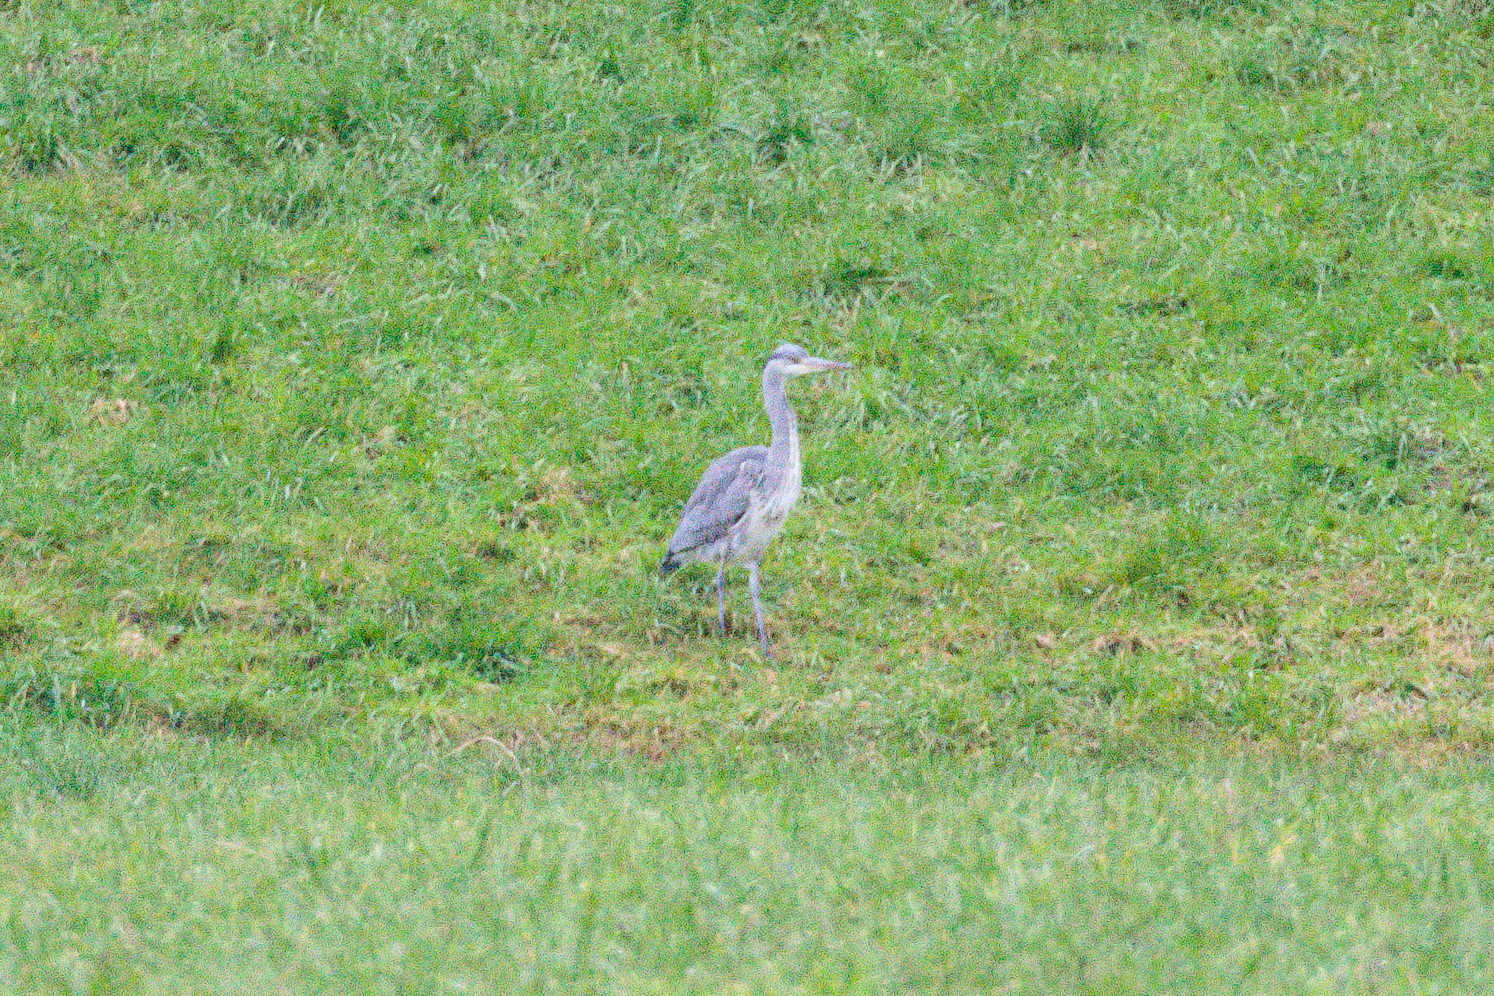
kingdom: Animalia
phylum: Chordata
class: Aves
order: Pelecaniformes
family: Ardeidae
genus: Ardea
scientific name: Ardea cinerea
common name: Grey heron
